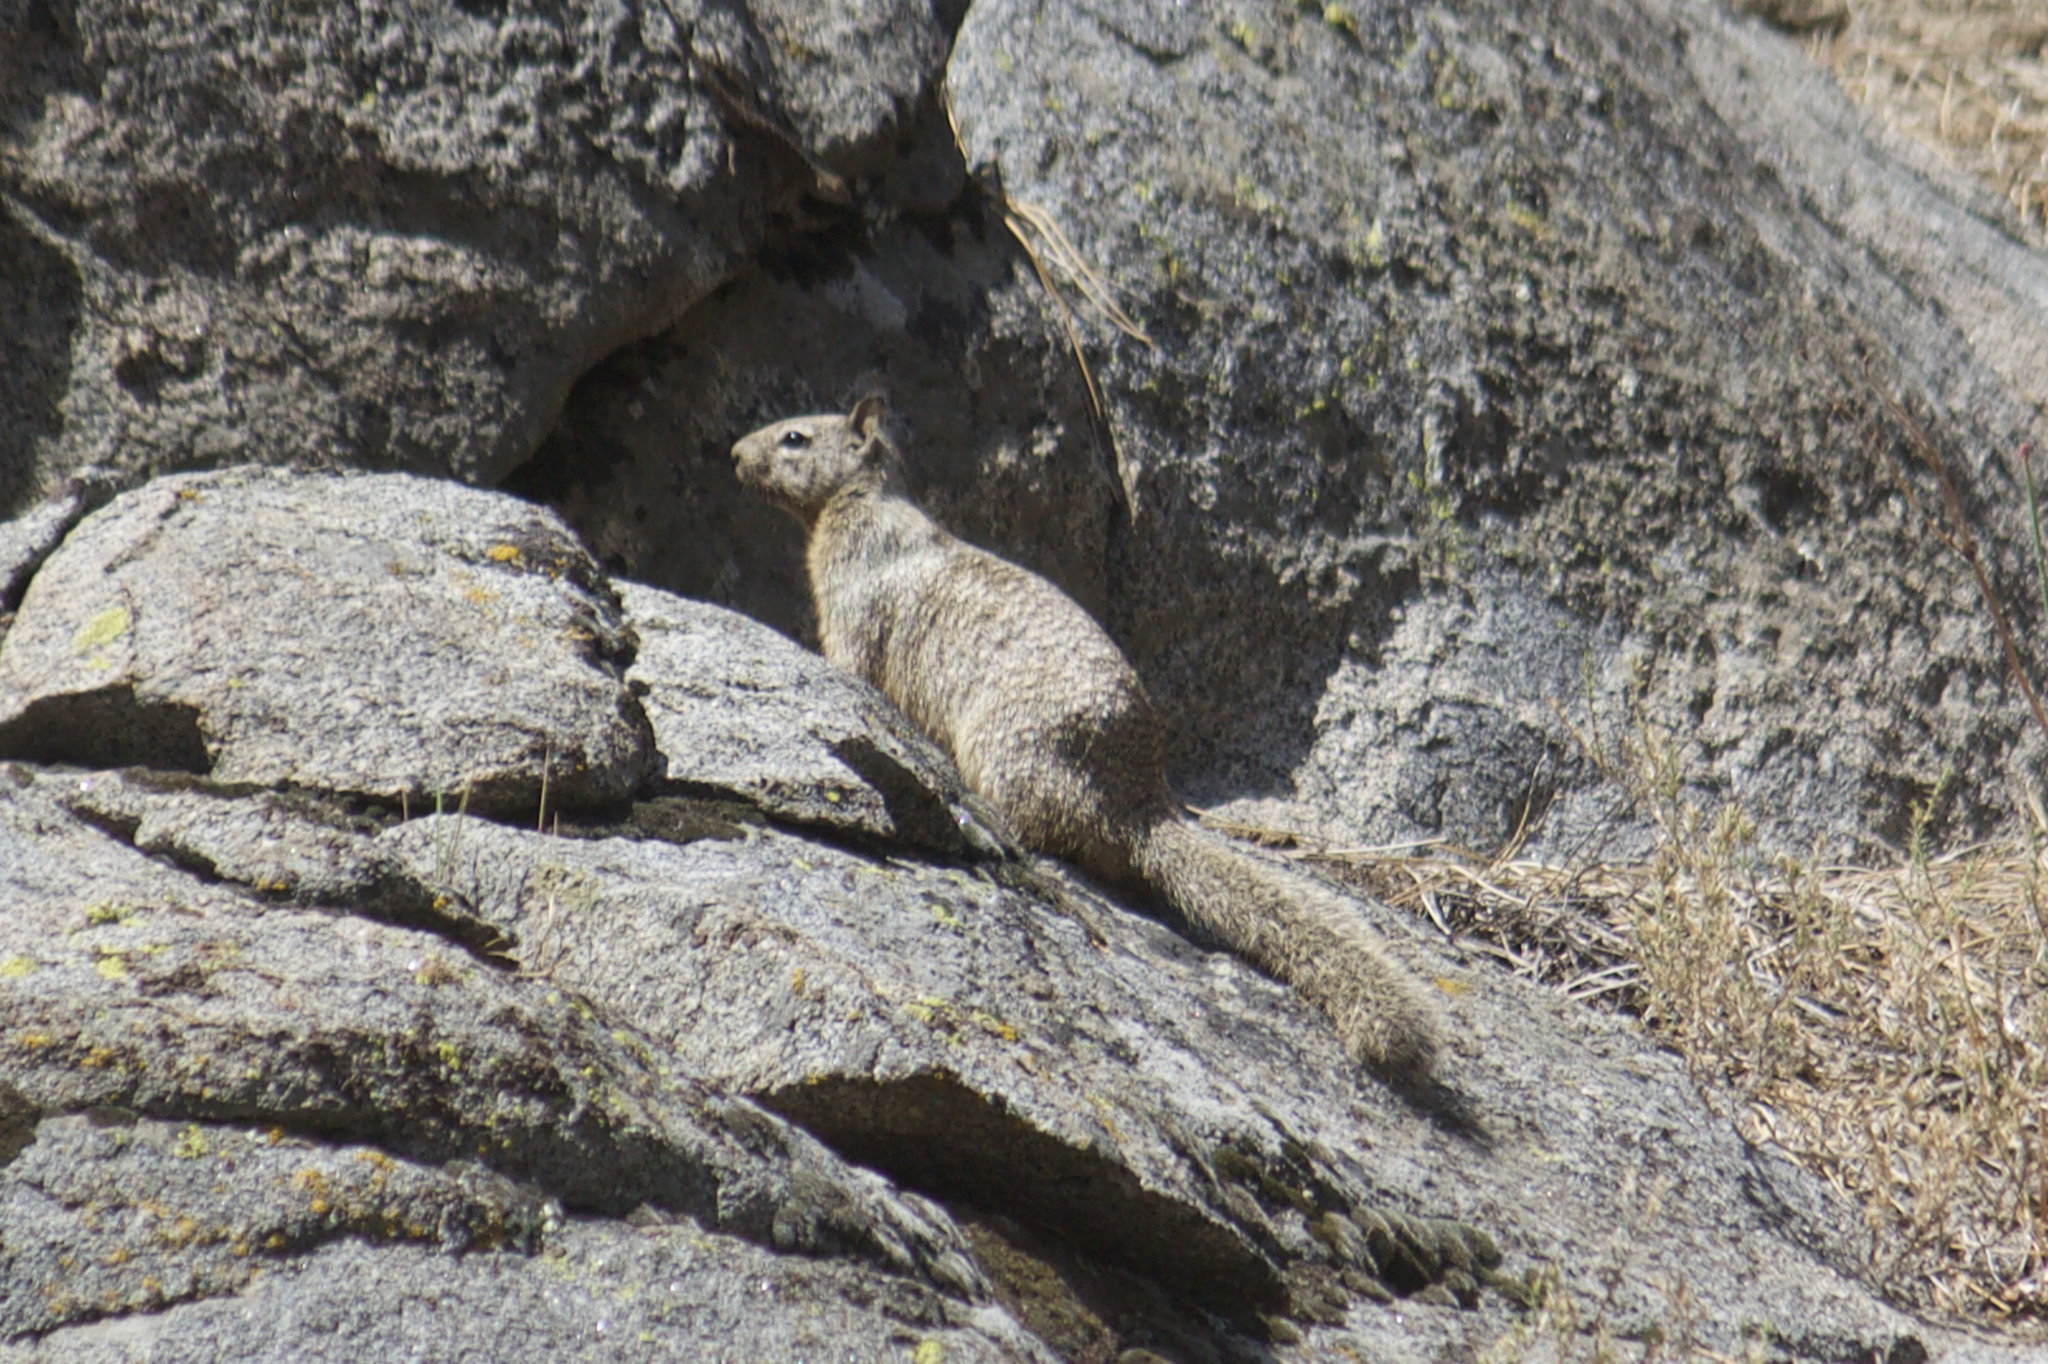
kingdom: Animalia
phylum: Chordata
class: Mammalia
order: Rodentia
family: Sciuridae
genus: Otospermophilus
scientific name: Otospermophilus beecheyi
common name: California ground squirrel
